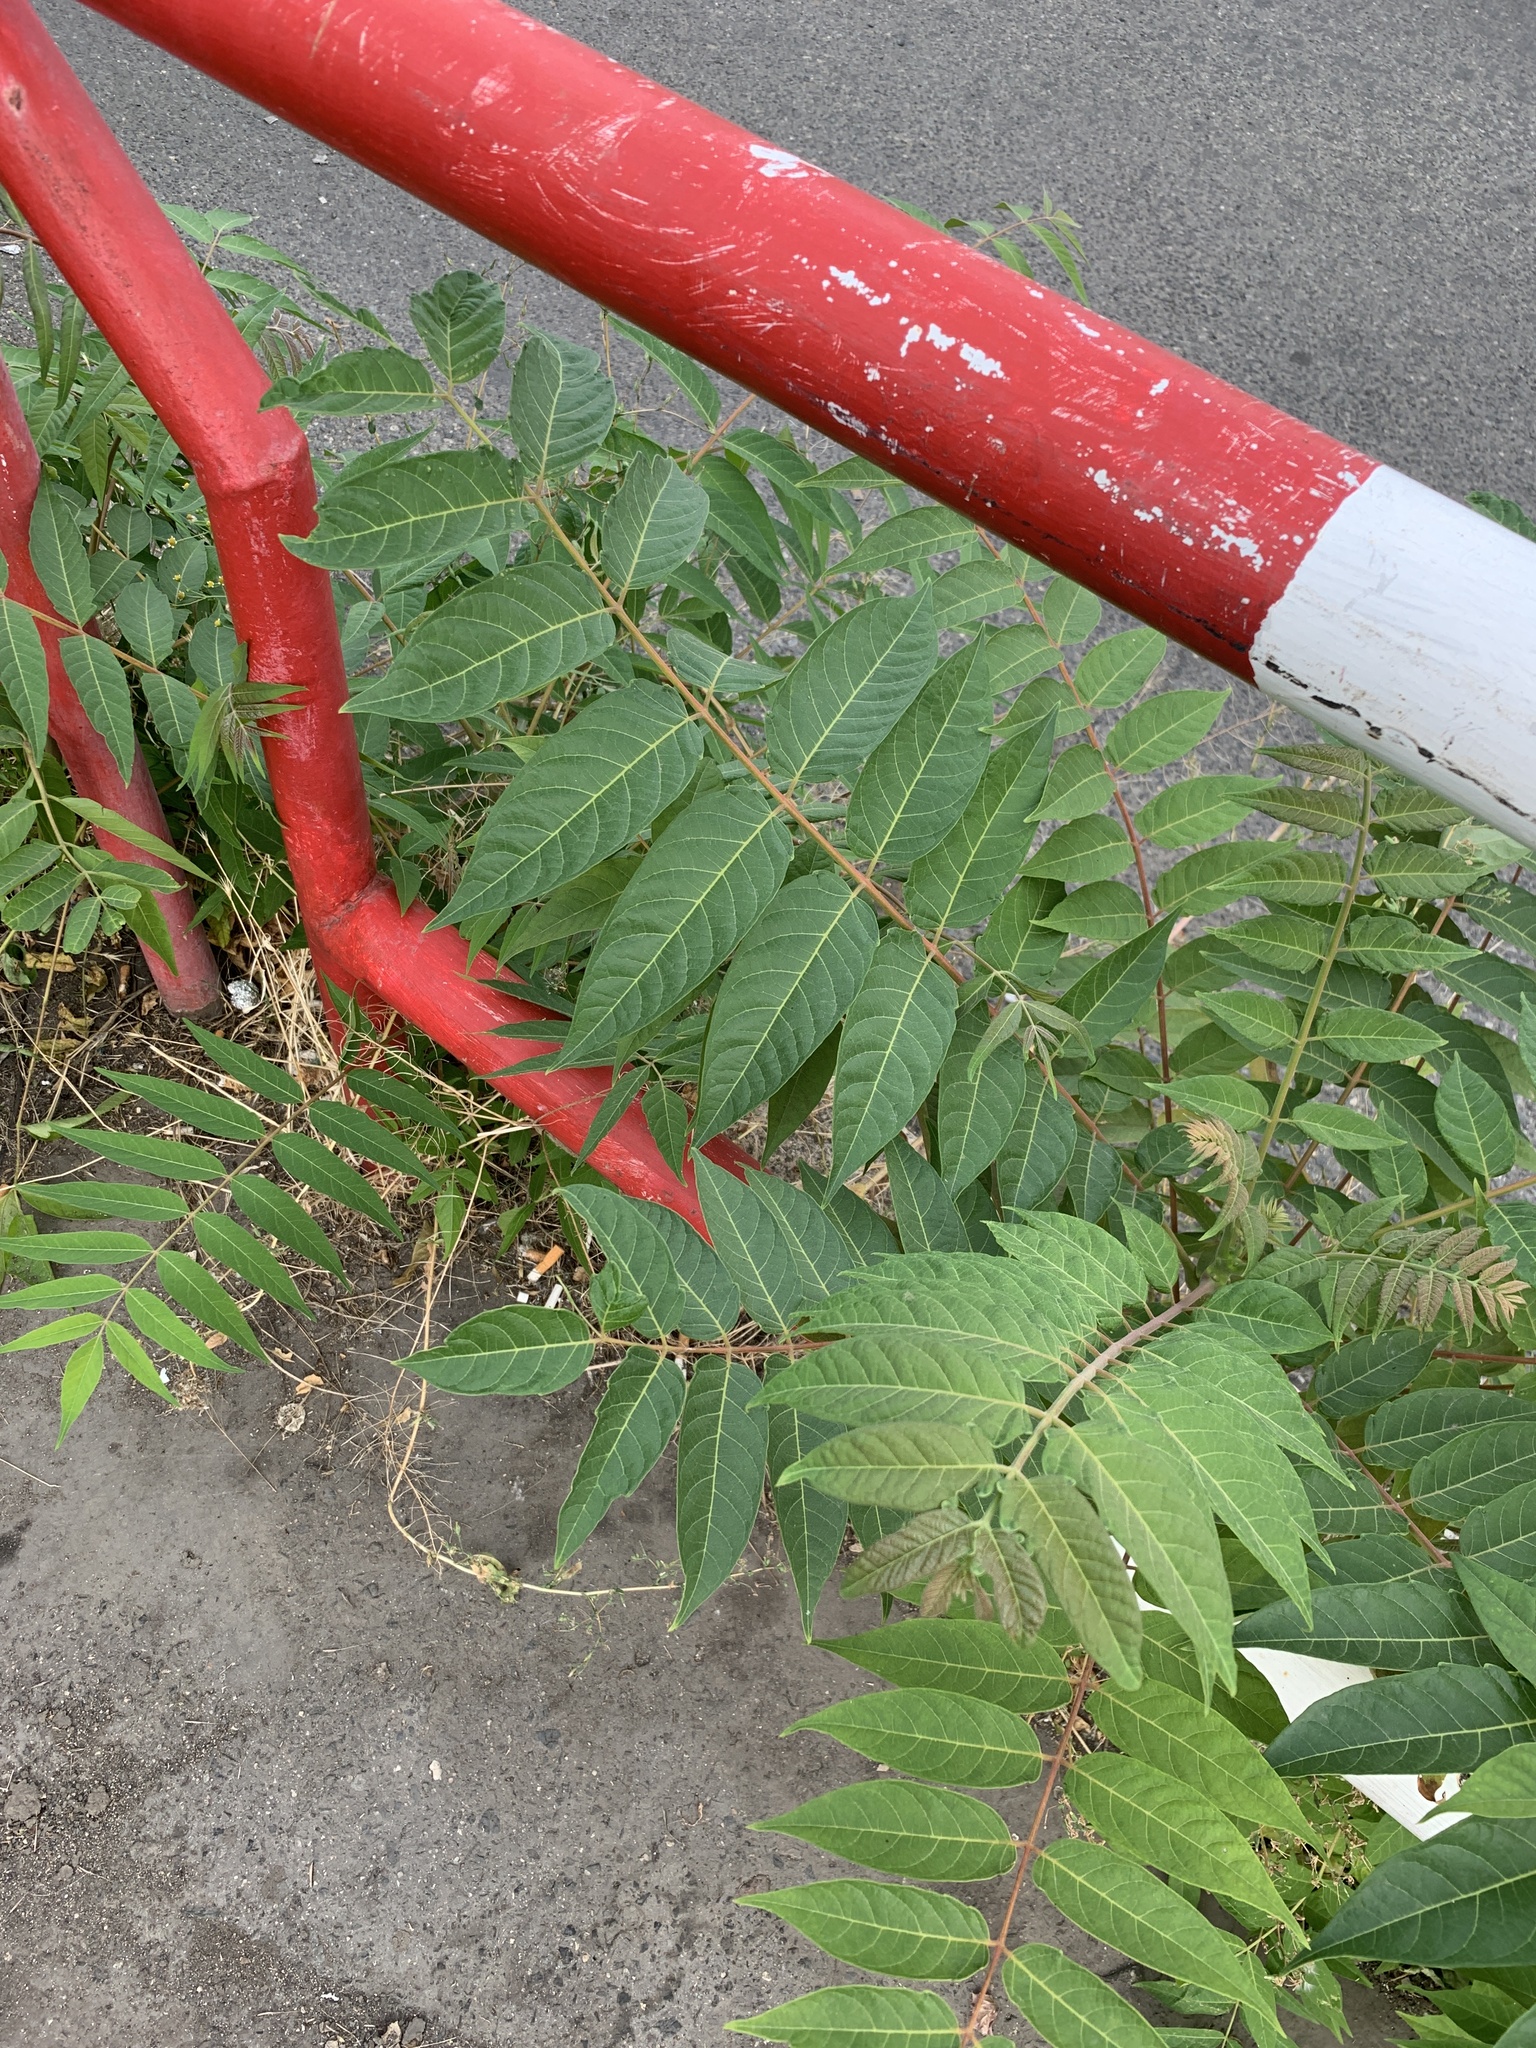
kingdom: Plantae
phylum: Tracheophyta
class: Magnoliopsida
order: Sapindales
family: Simaroubaceae
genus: Ailanthus
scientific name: Ailanthus altissima
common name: Tree-of-heaven
